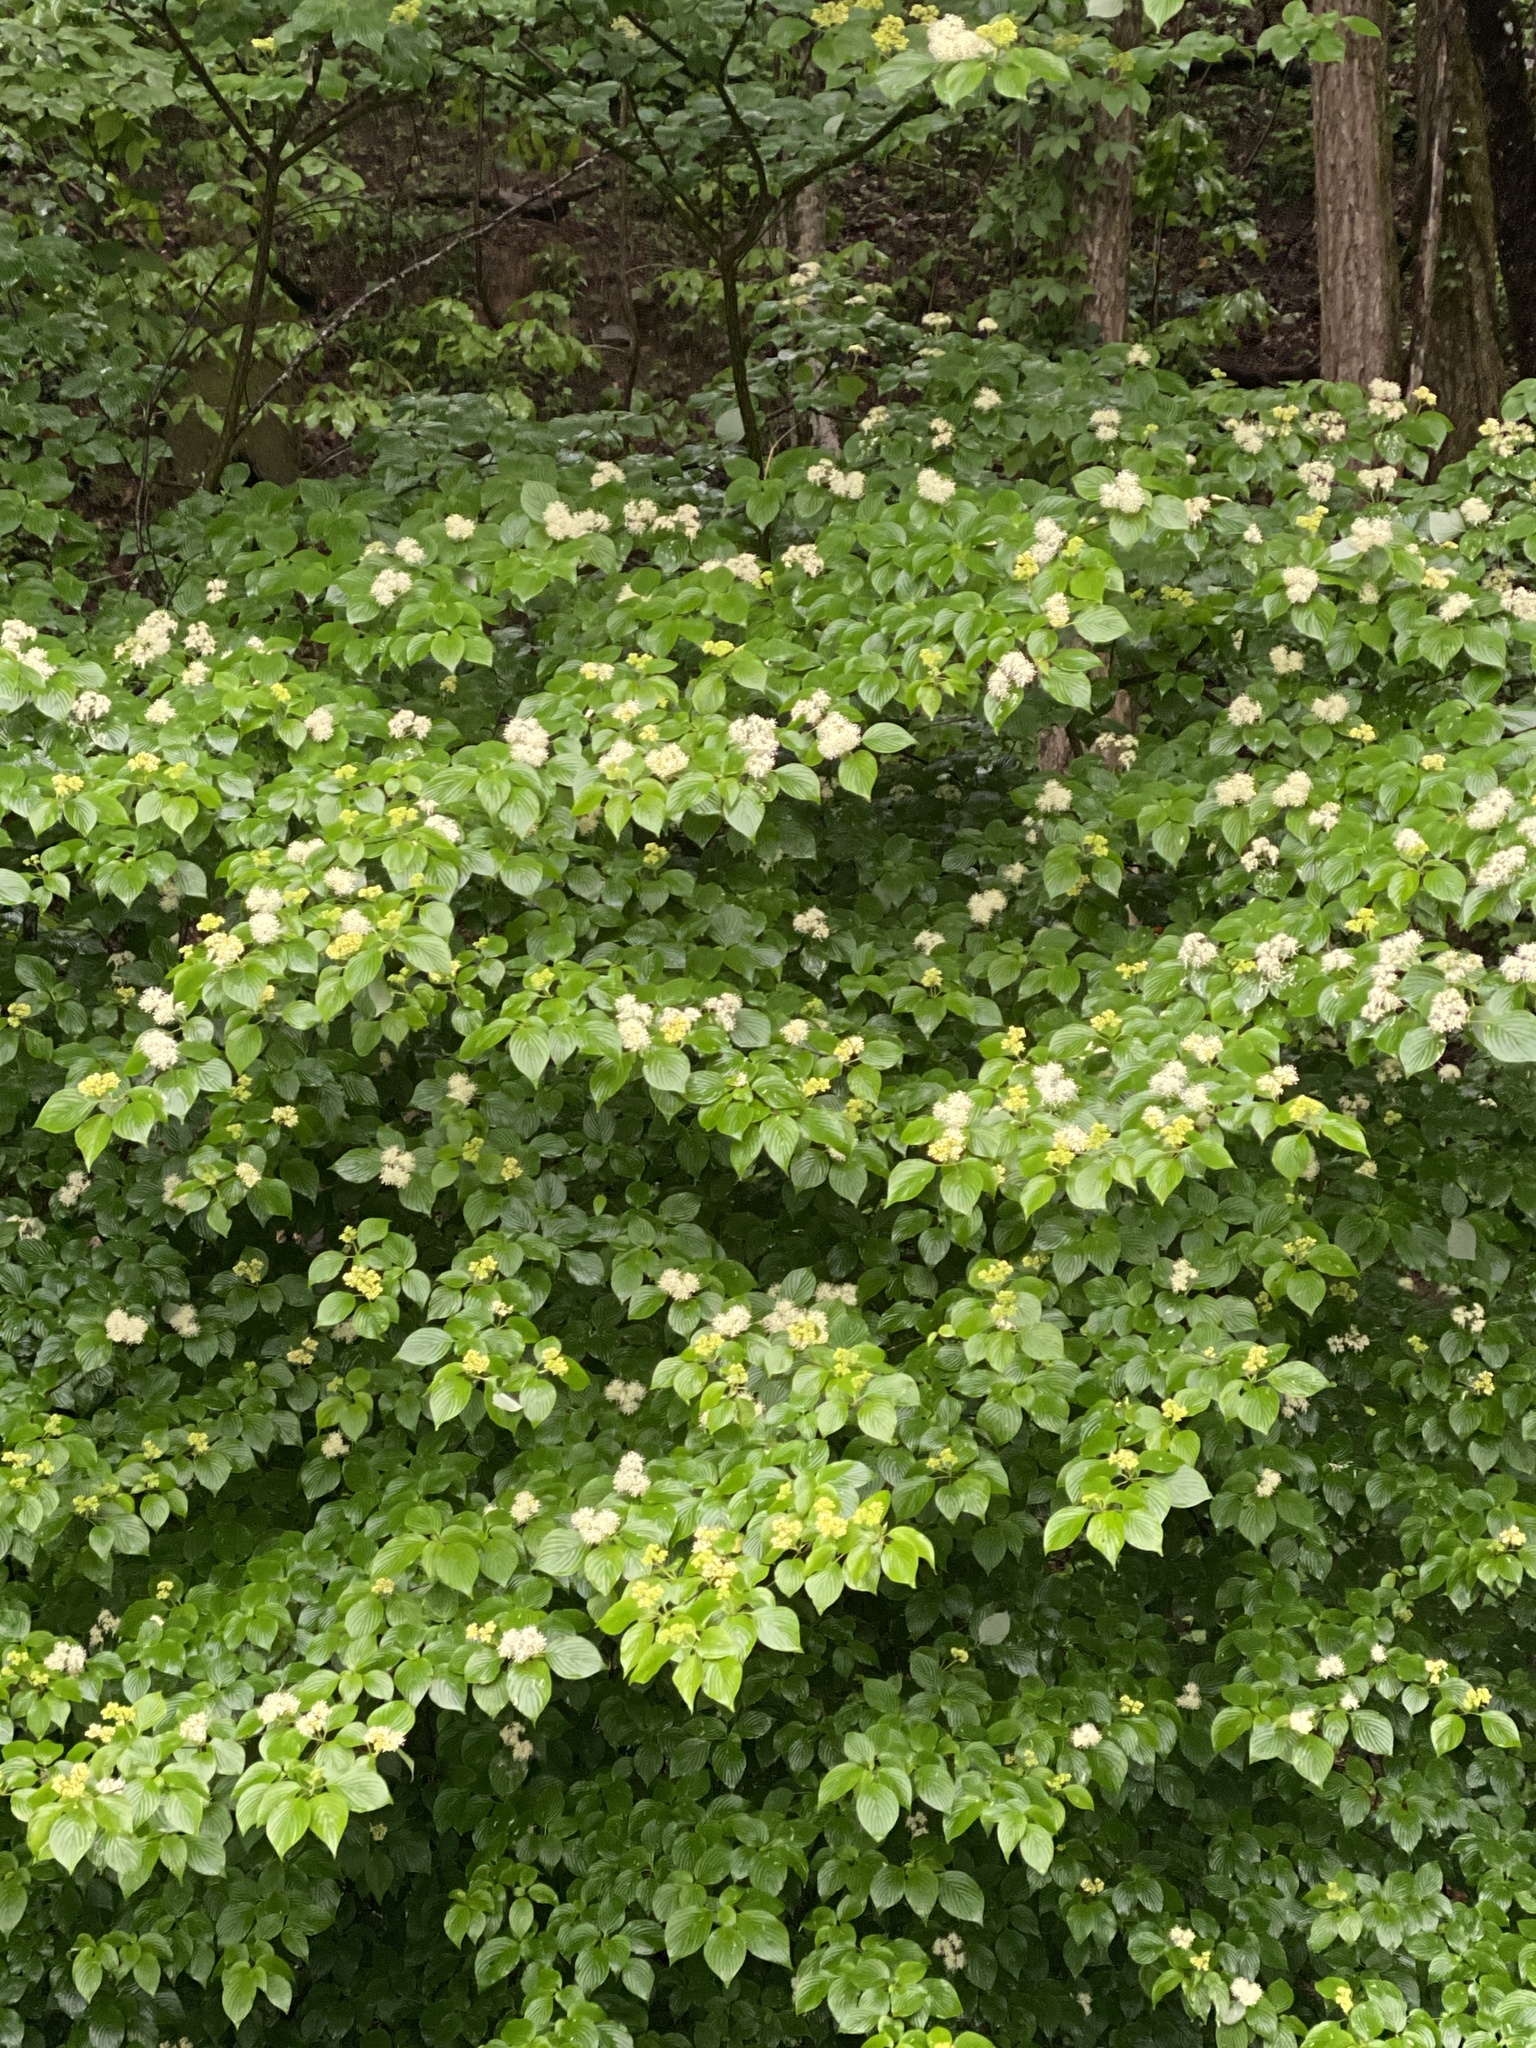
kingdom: Plantae
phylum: Tracheophyta
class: Magnoliopsida
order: Cornales
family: Cornaceae
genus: Cornus
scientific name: Cornus alternifolia
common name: Pagoda dogwood
